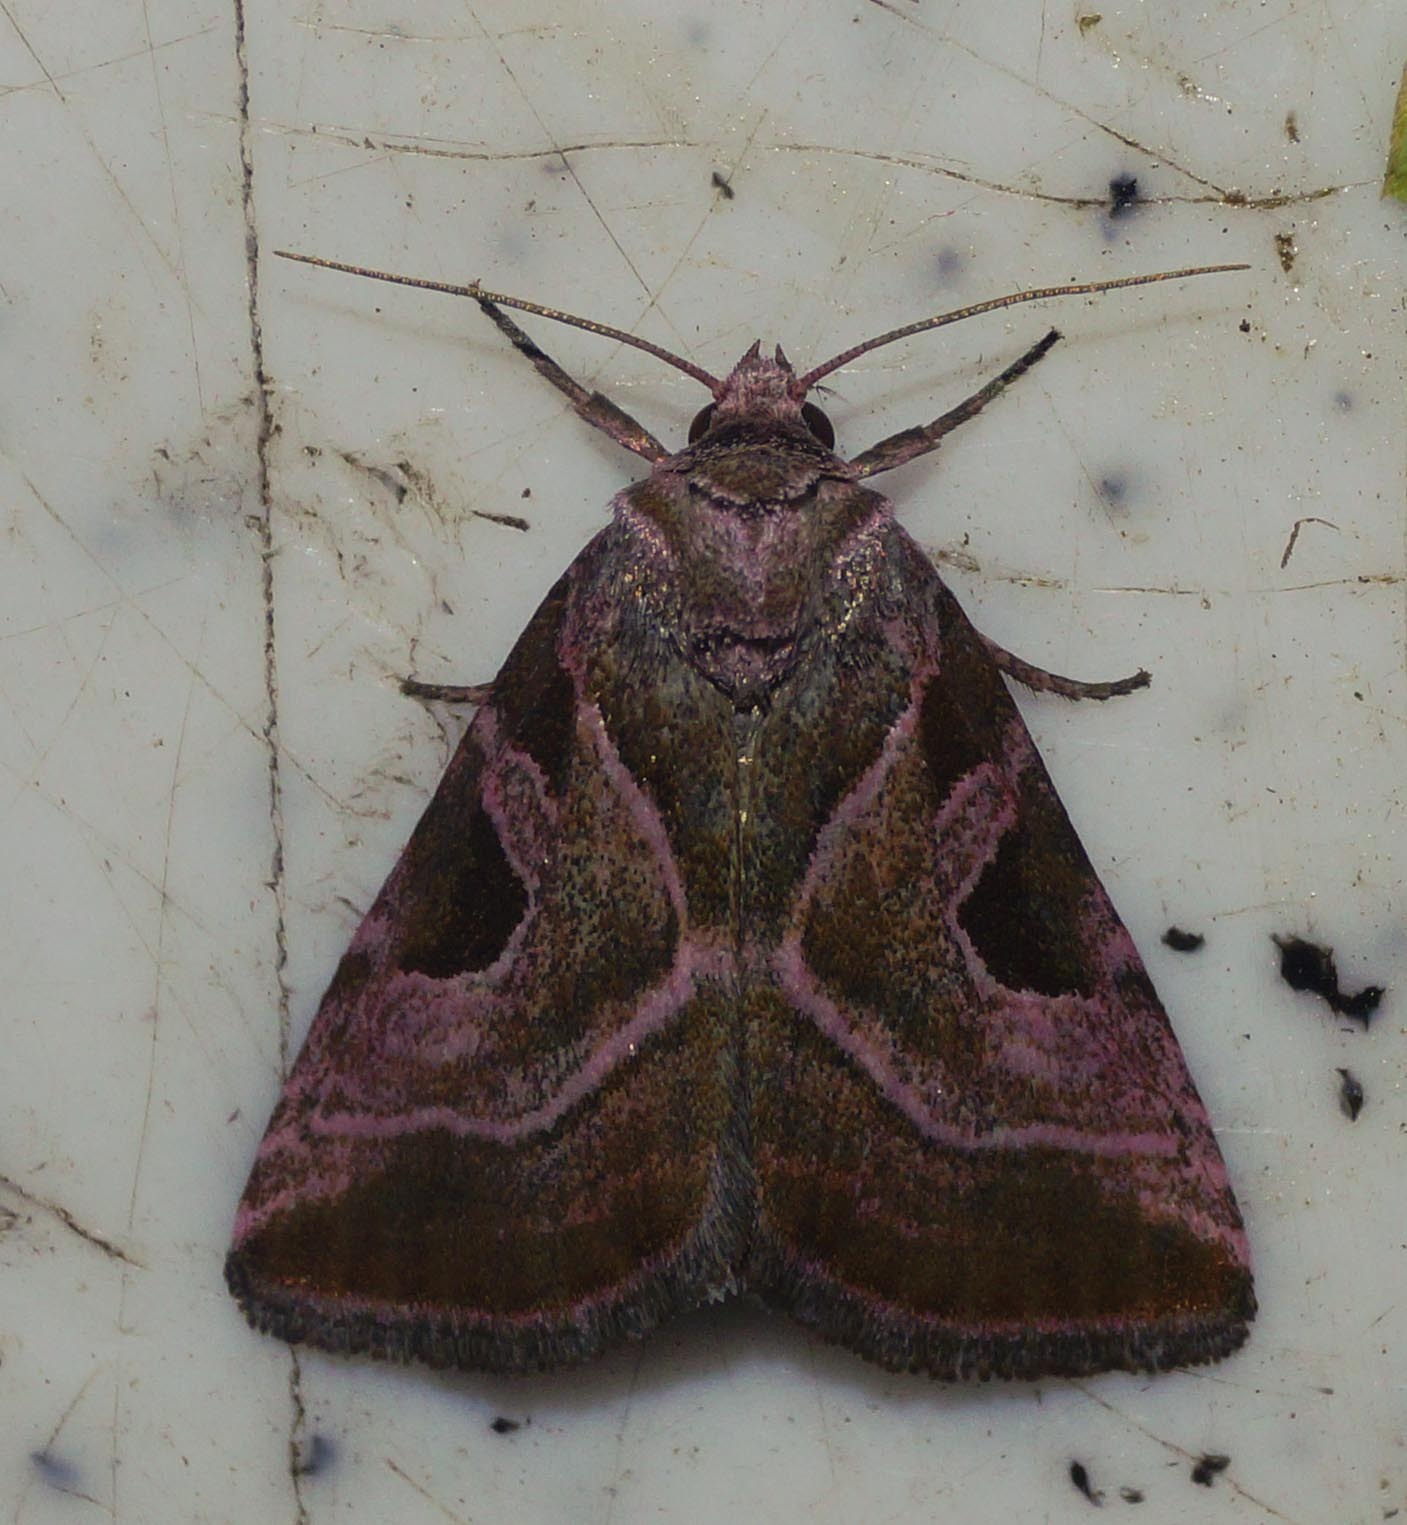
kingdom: Animalia
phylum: Arthropoda
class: Insecta
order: Lepidoptera
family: Noctuidae
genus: Eucarta
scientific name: Eucarta virgo
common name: Silvery gem
